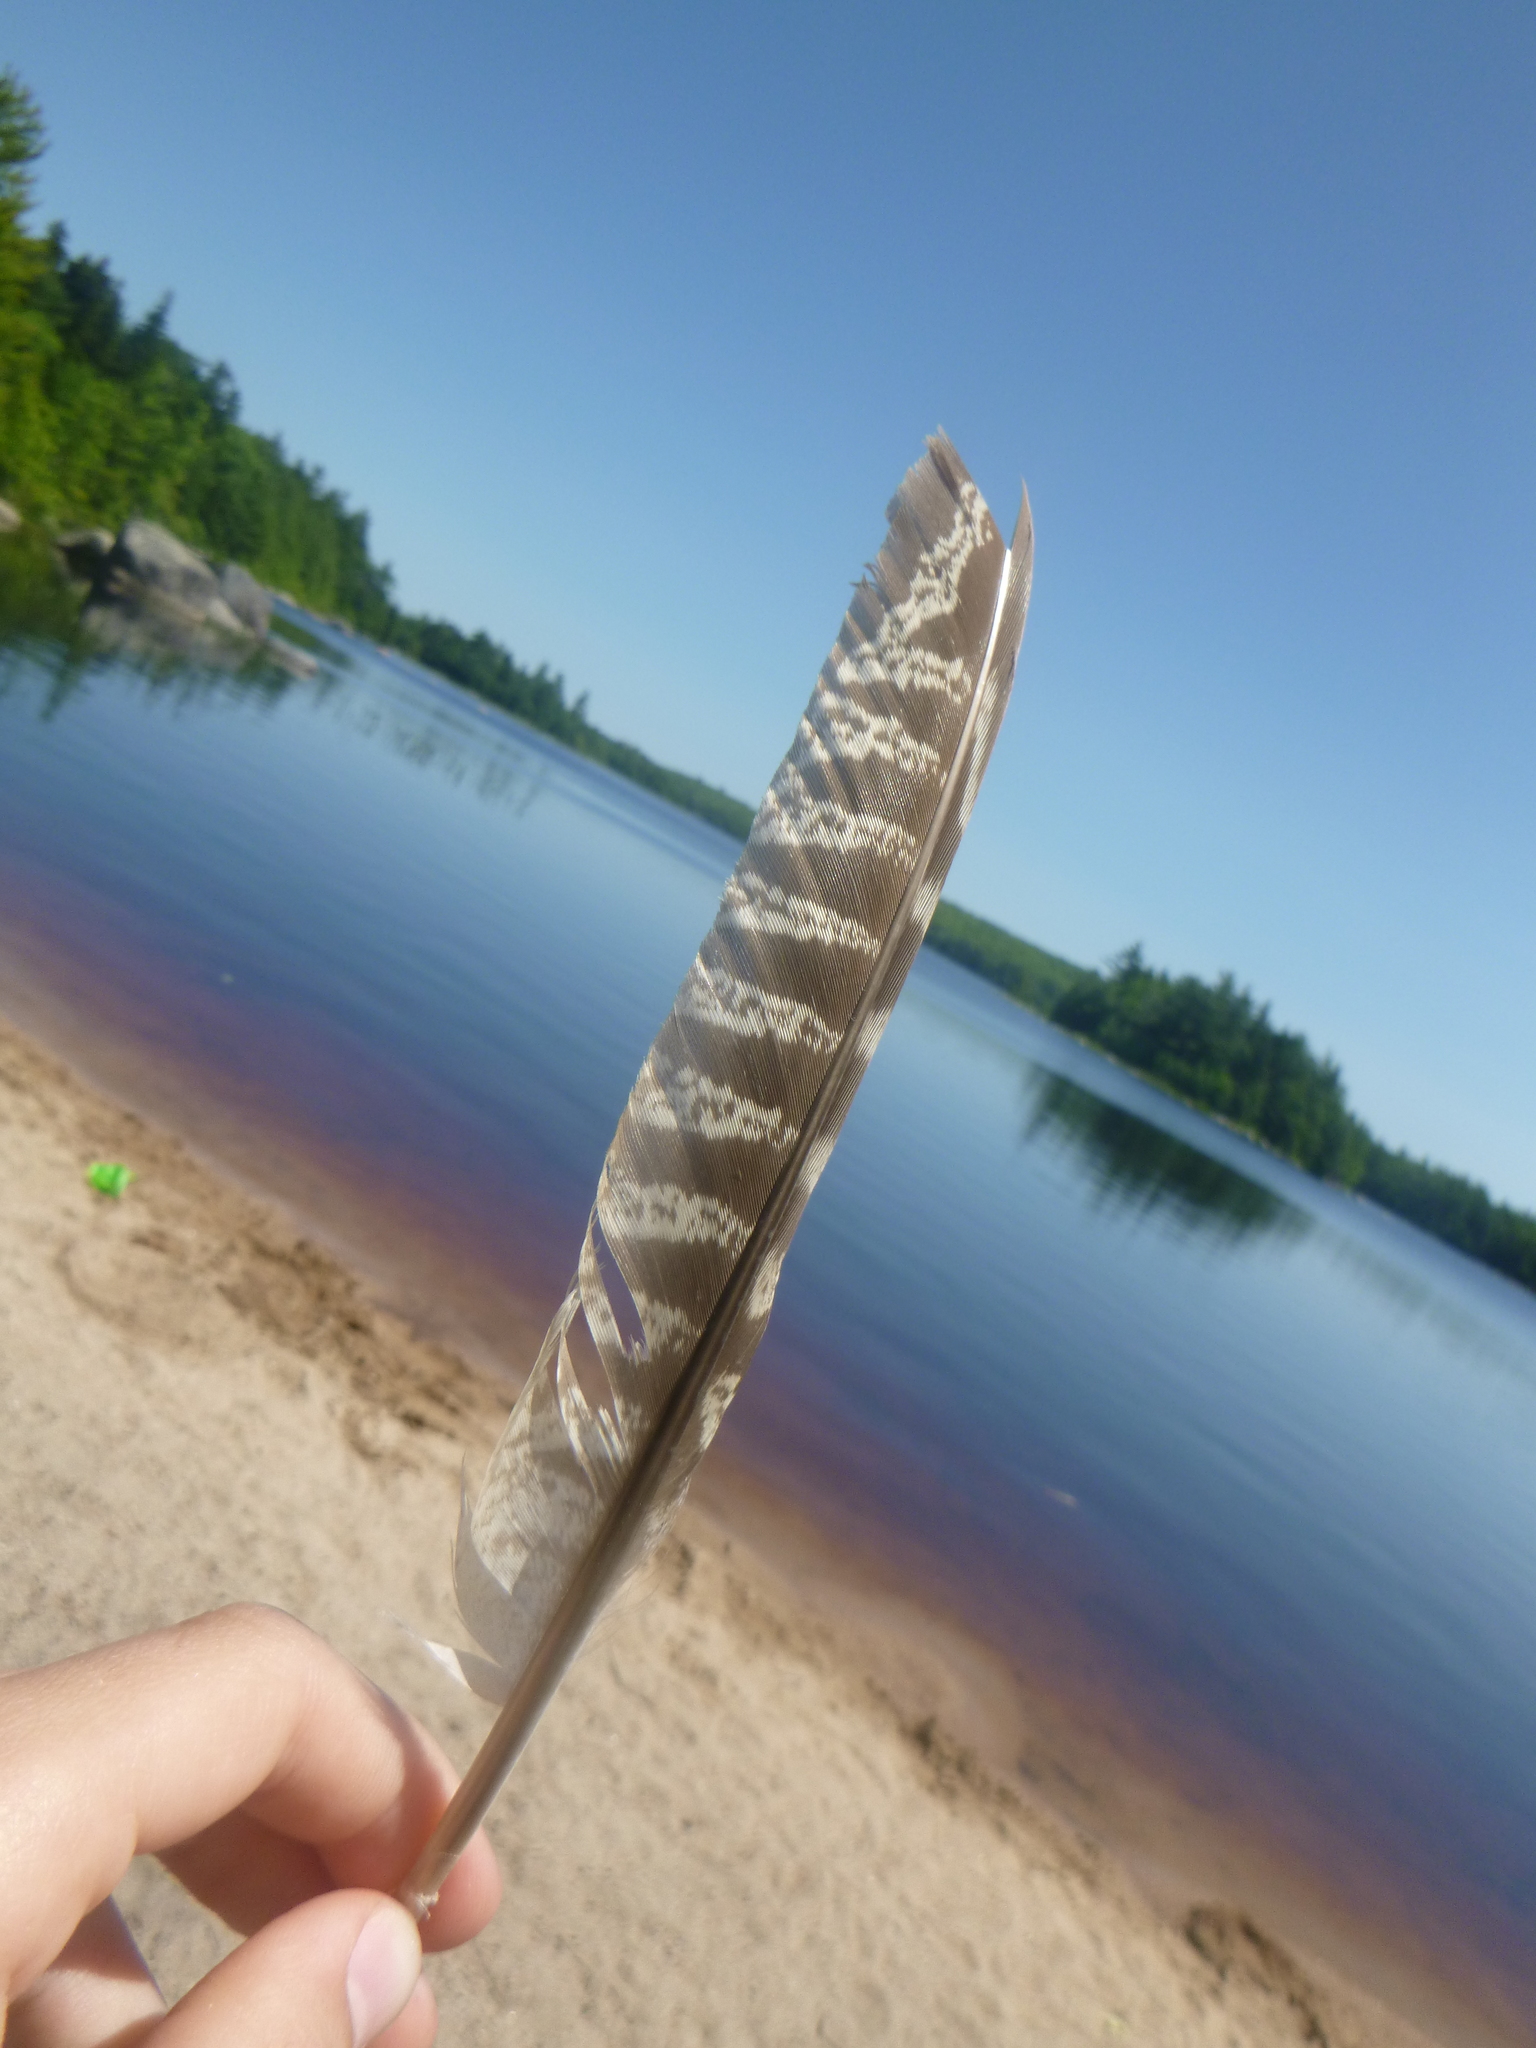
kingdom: Animalia
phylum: Chordata
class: Aves
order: Galliformes
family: Phasianidae
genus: Phasianus
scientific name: Phasianus colchicus
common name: Common pheasant
